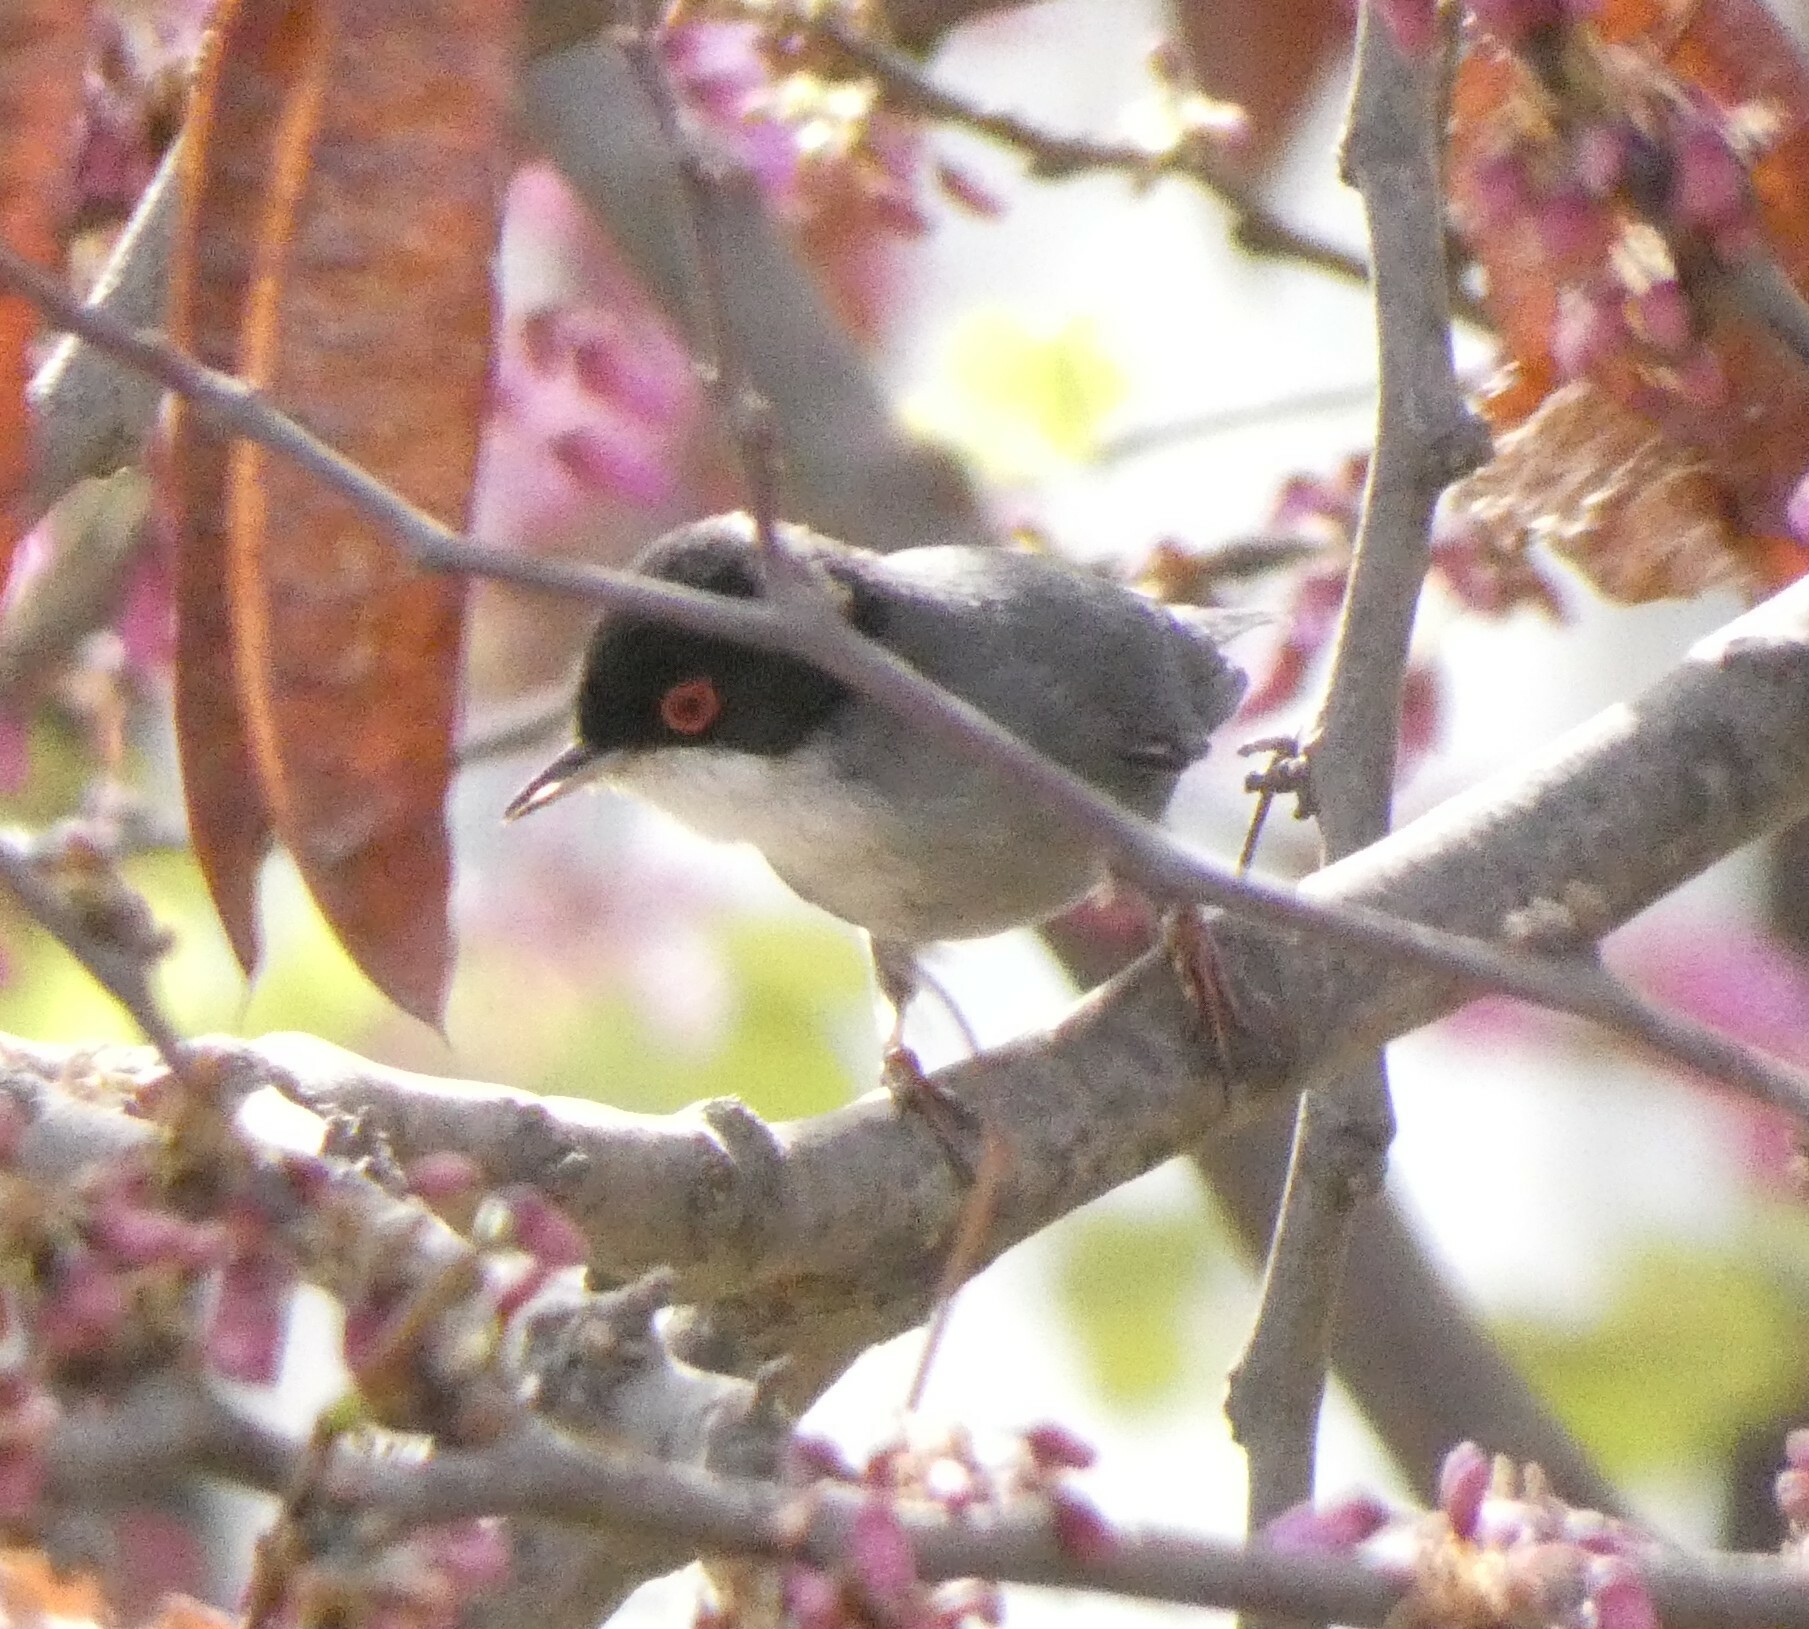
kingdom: Animalia
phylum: Chordata
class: Aves
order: Passeriformes
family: Sylviidae
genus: Curruca
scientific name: Curruca melanocephala
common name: Sardinian warbler
